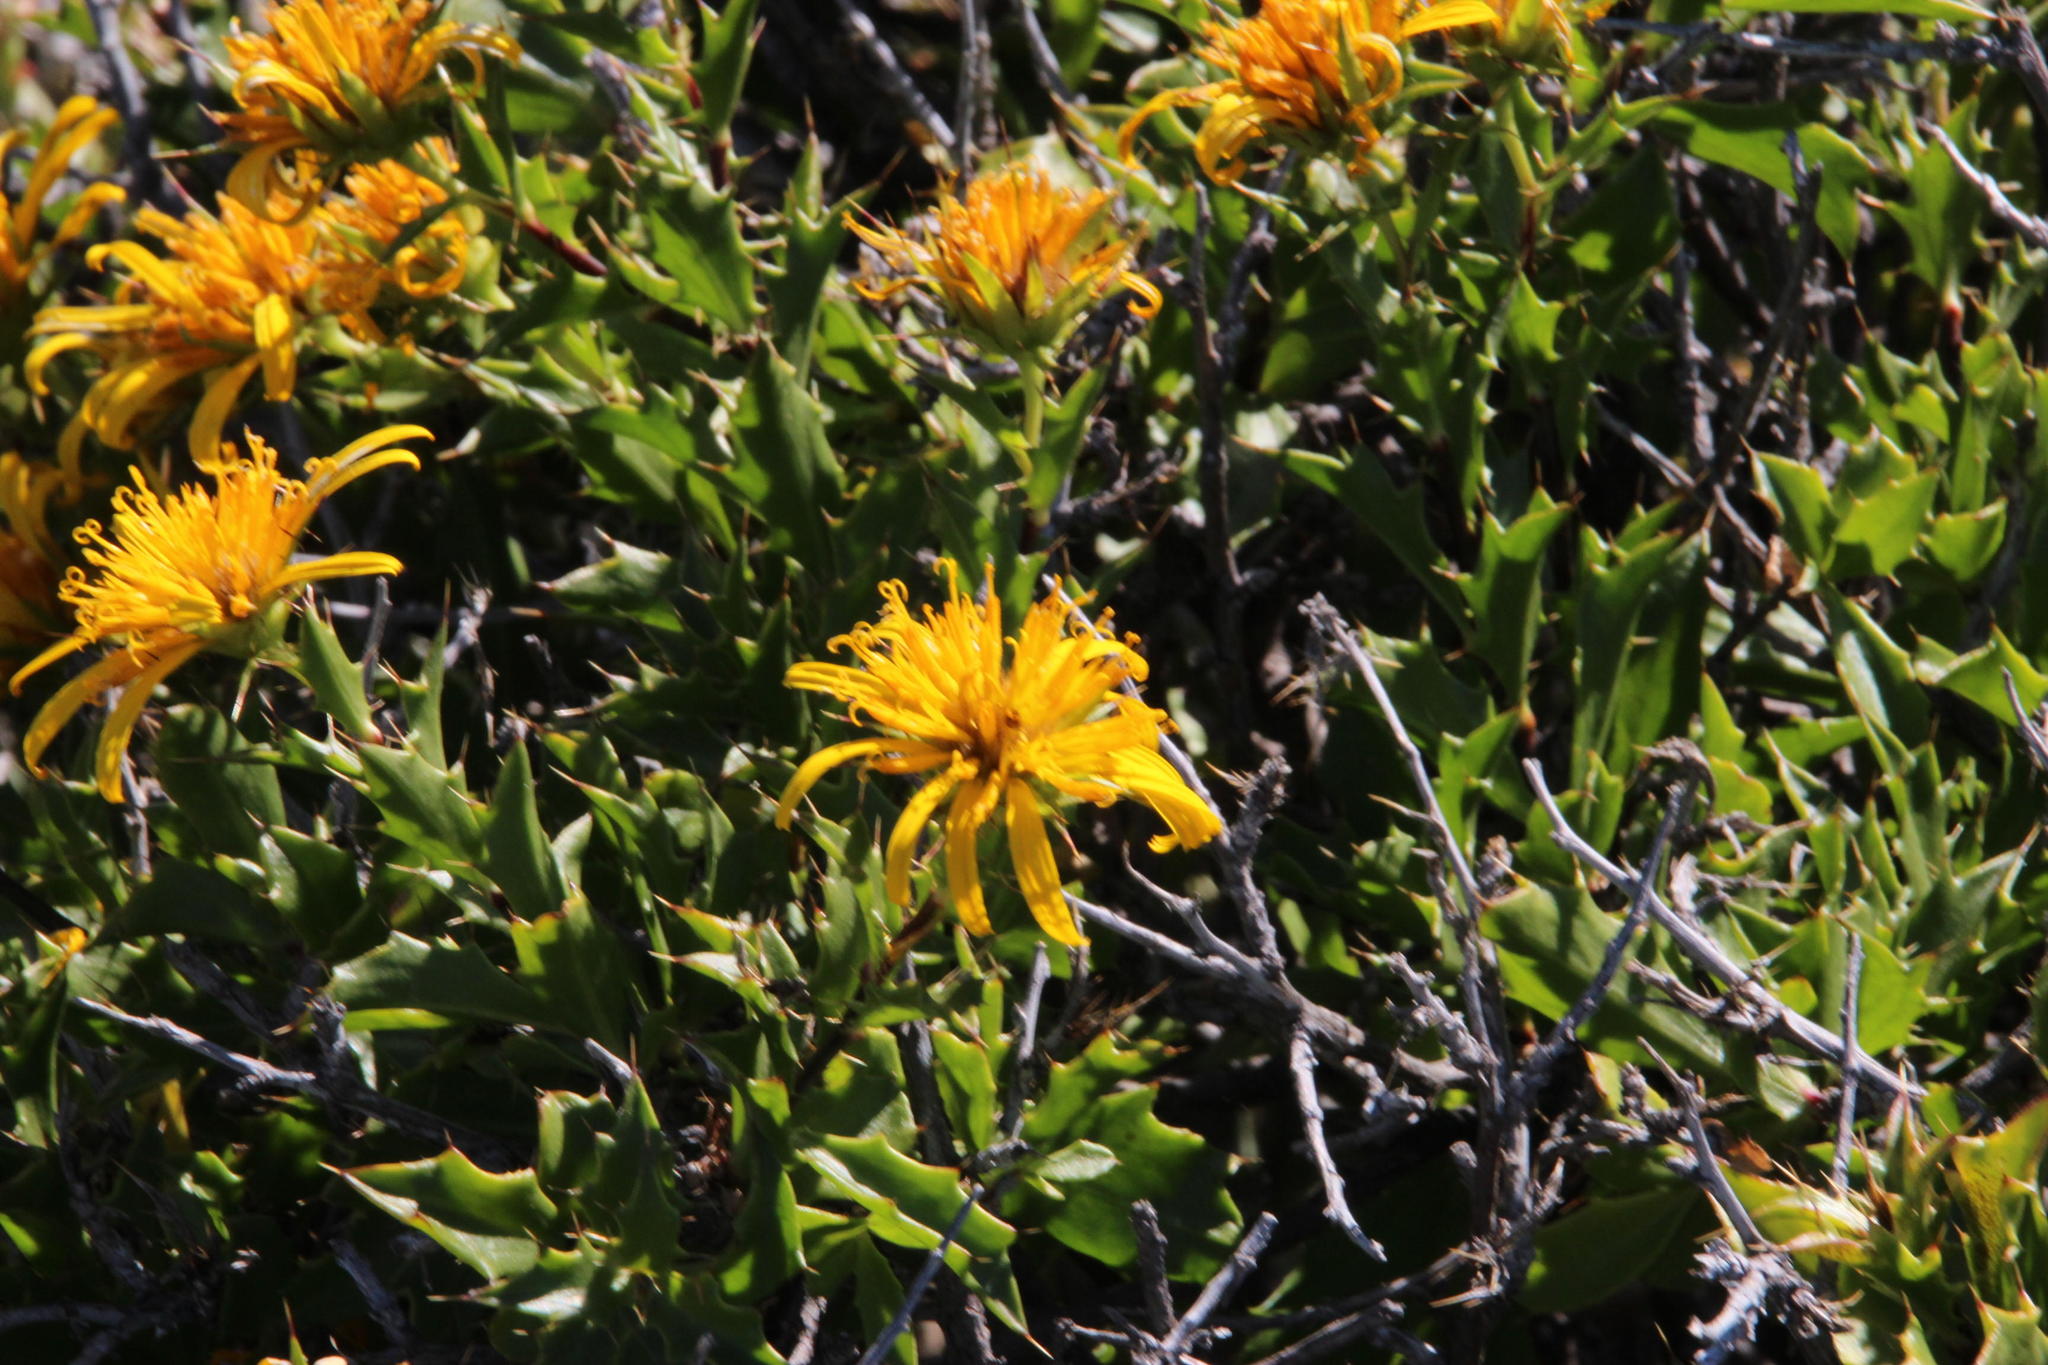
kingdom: Plantae
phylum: Tracheophyta
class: Magnoliopsida
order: Asterales
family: Asteraceae
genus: Berkheya
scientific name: Berkheya spinosa
